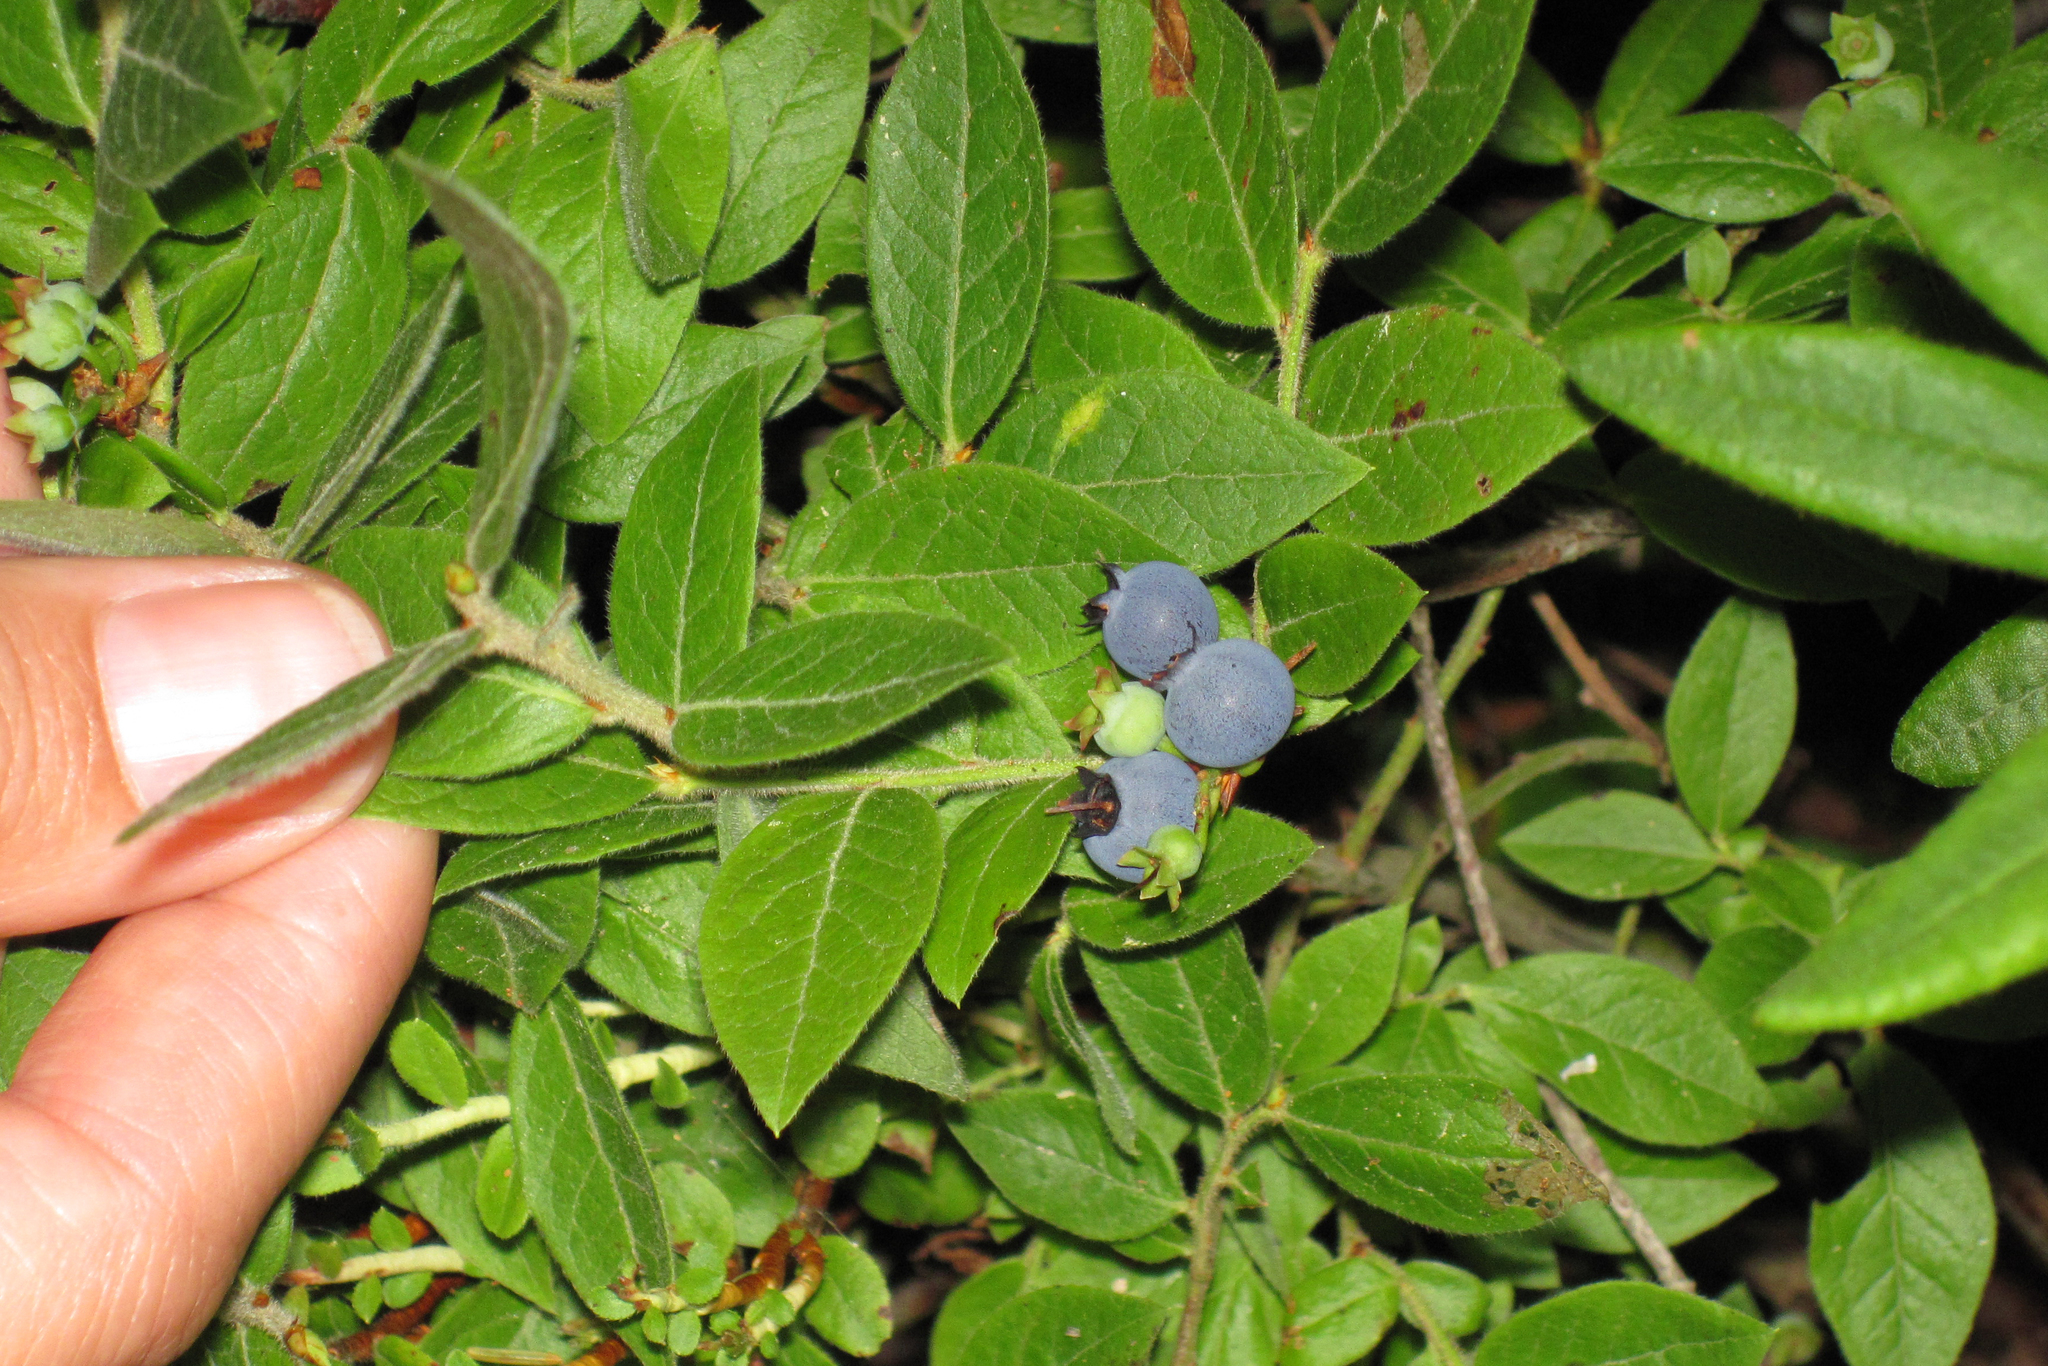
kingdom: Plantae
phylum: Tracheophyta
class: Magnoliopsida
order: Ericales
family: Ericaceae
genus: Vaccinium
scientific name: Vaccinium myrtilloides
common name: Canada blueberry
